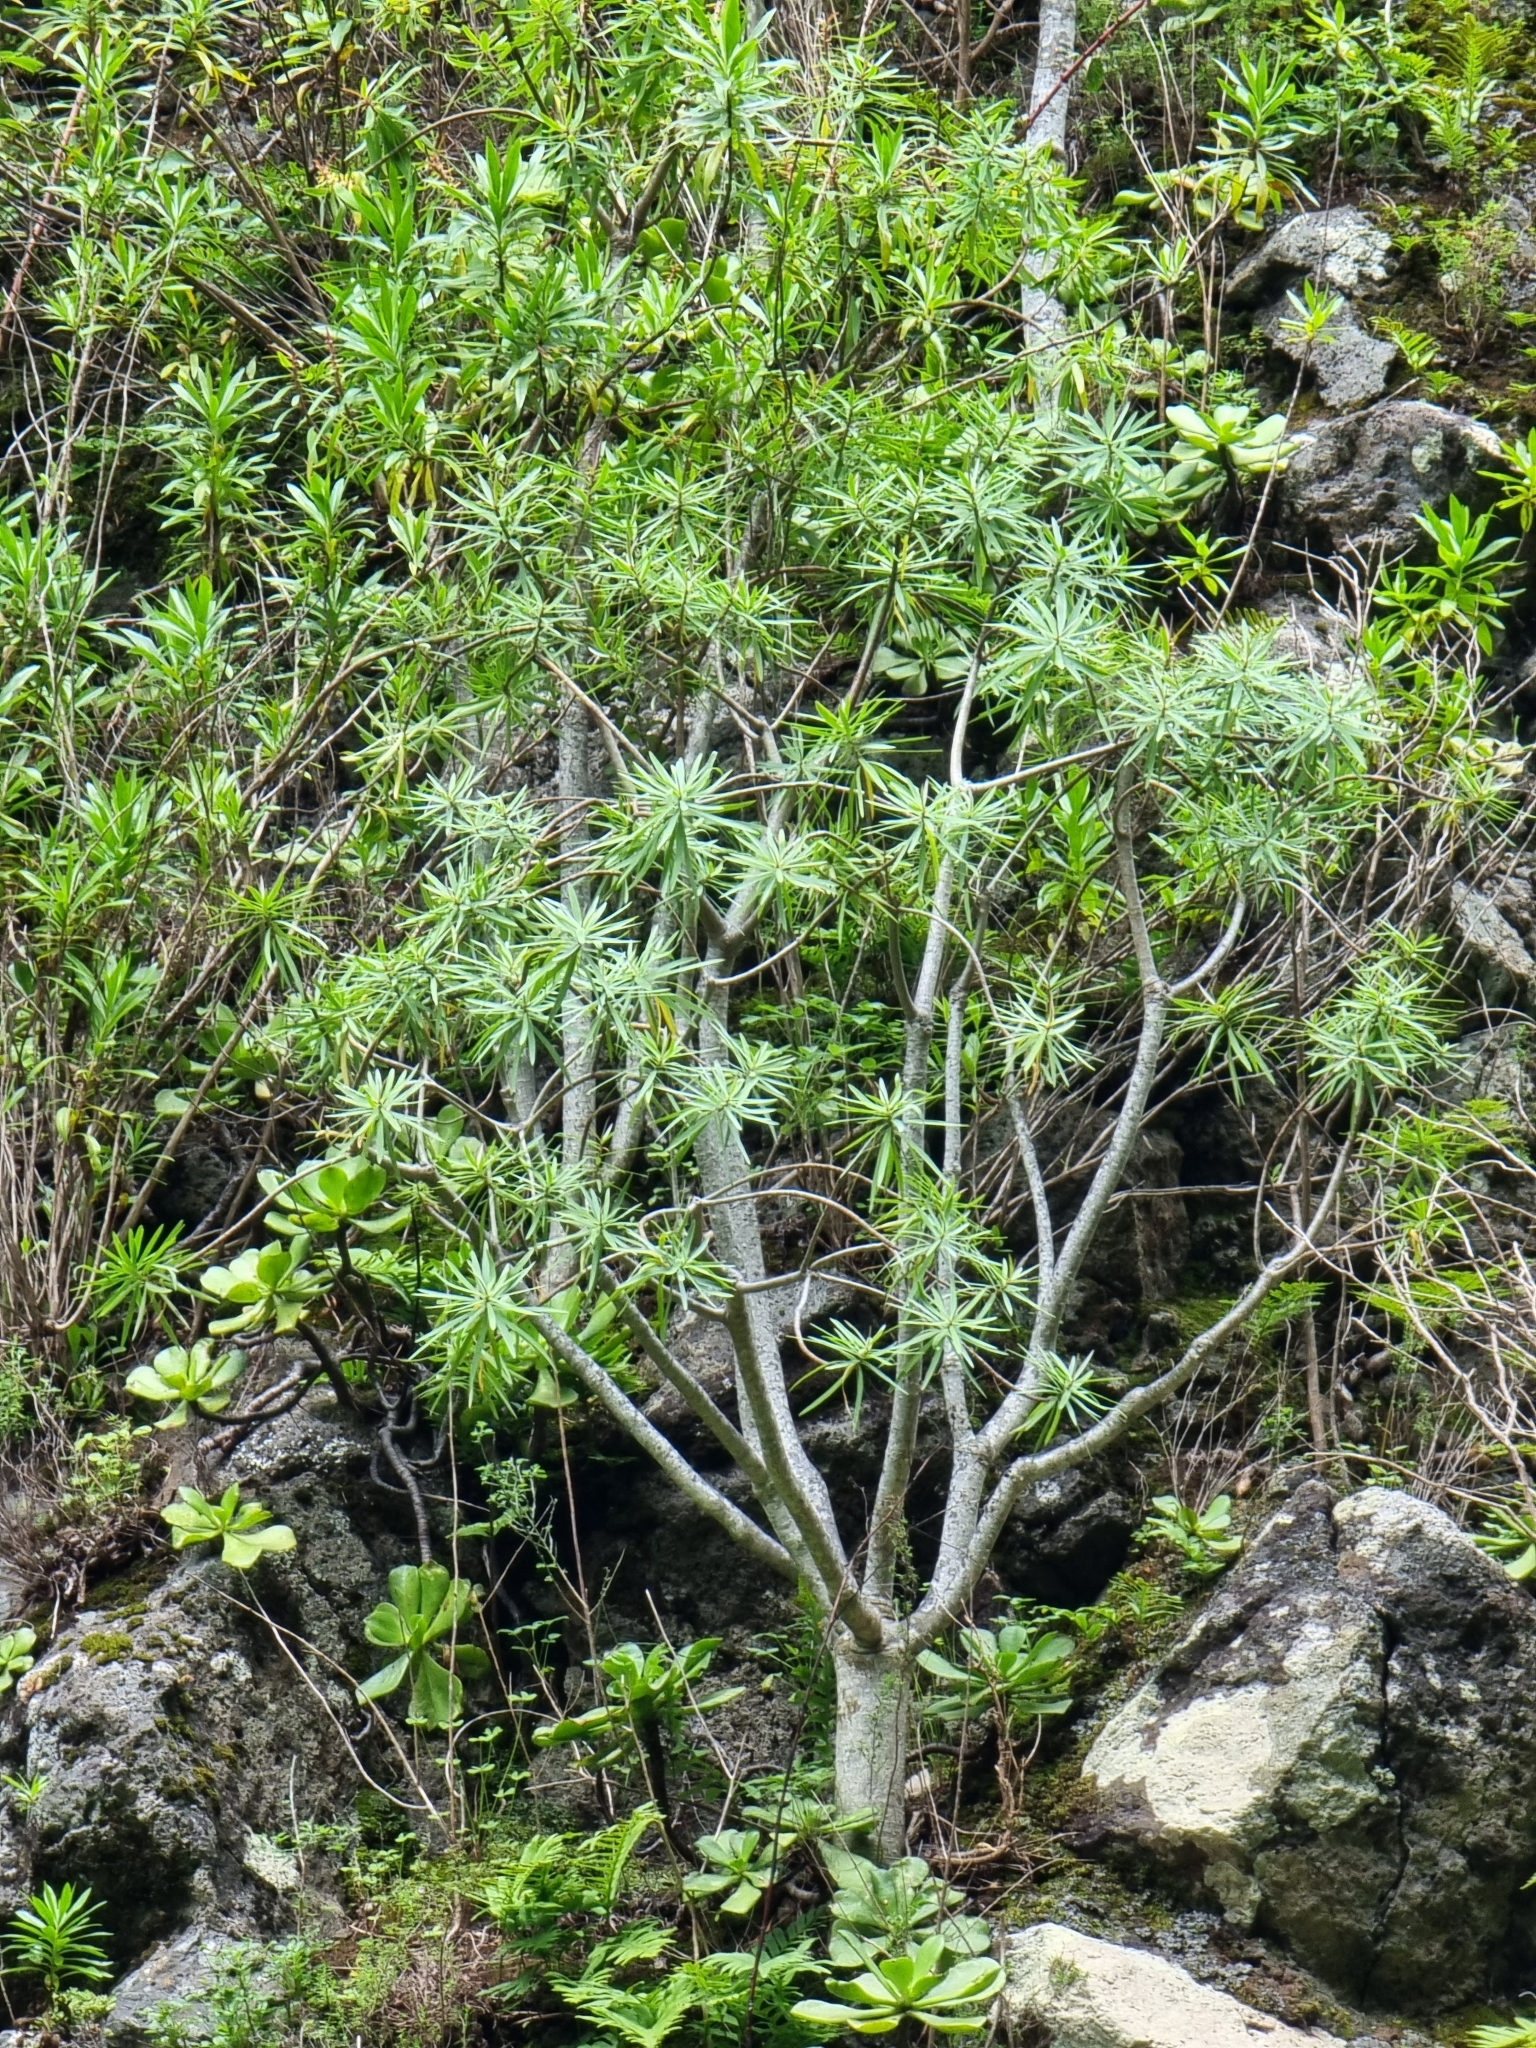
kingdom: Plantae
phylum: Tracheophyta
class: Magnoliopsida
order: Malpighiales
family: Euphorbiaceae
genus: Euphorbia
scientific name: Euphorbia piscatoria
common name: Fish-stunning spurge
